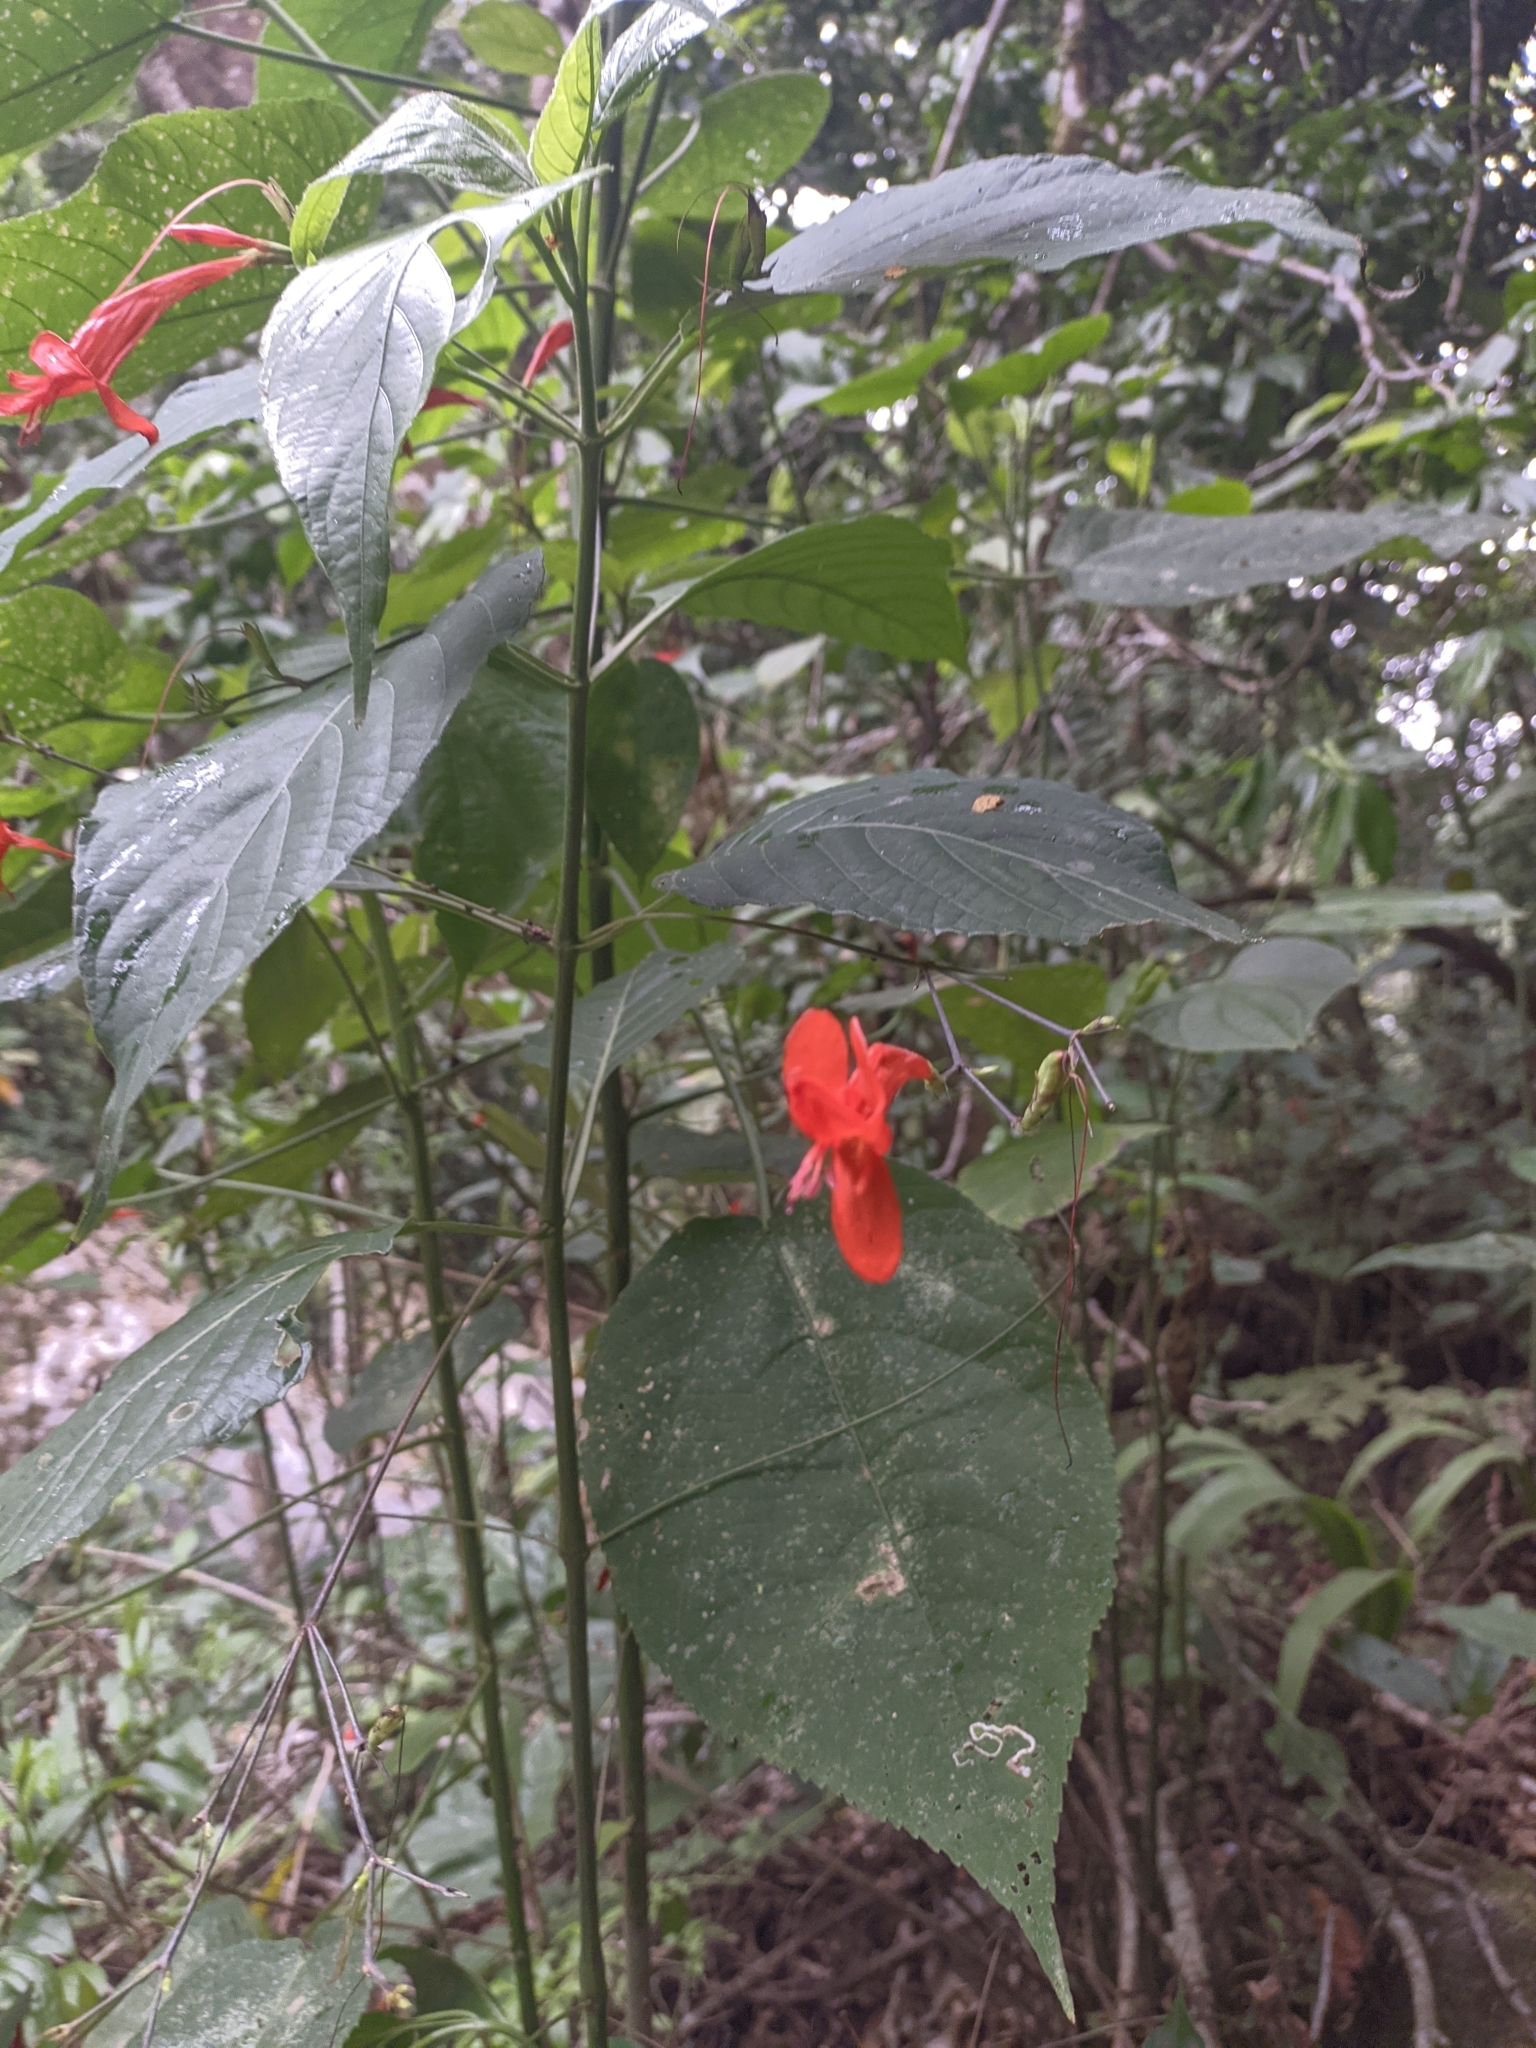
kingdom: Plantae
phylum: Tracheophyta
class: Magnoliopsida
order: Lamiales
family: Acanthaceae
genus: Ruellia
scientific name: Ruellia macrophylla
